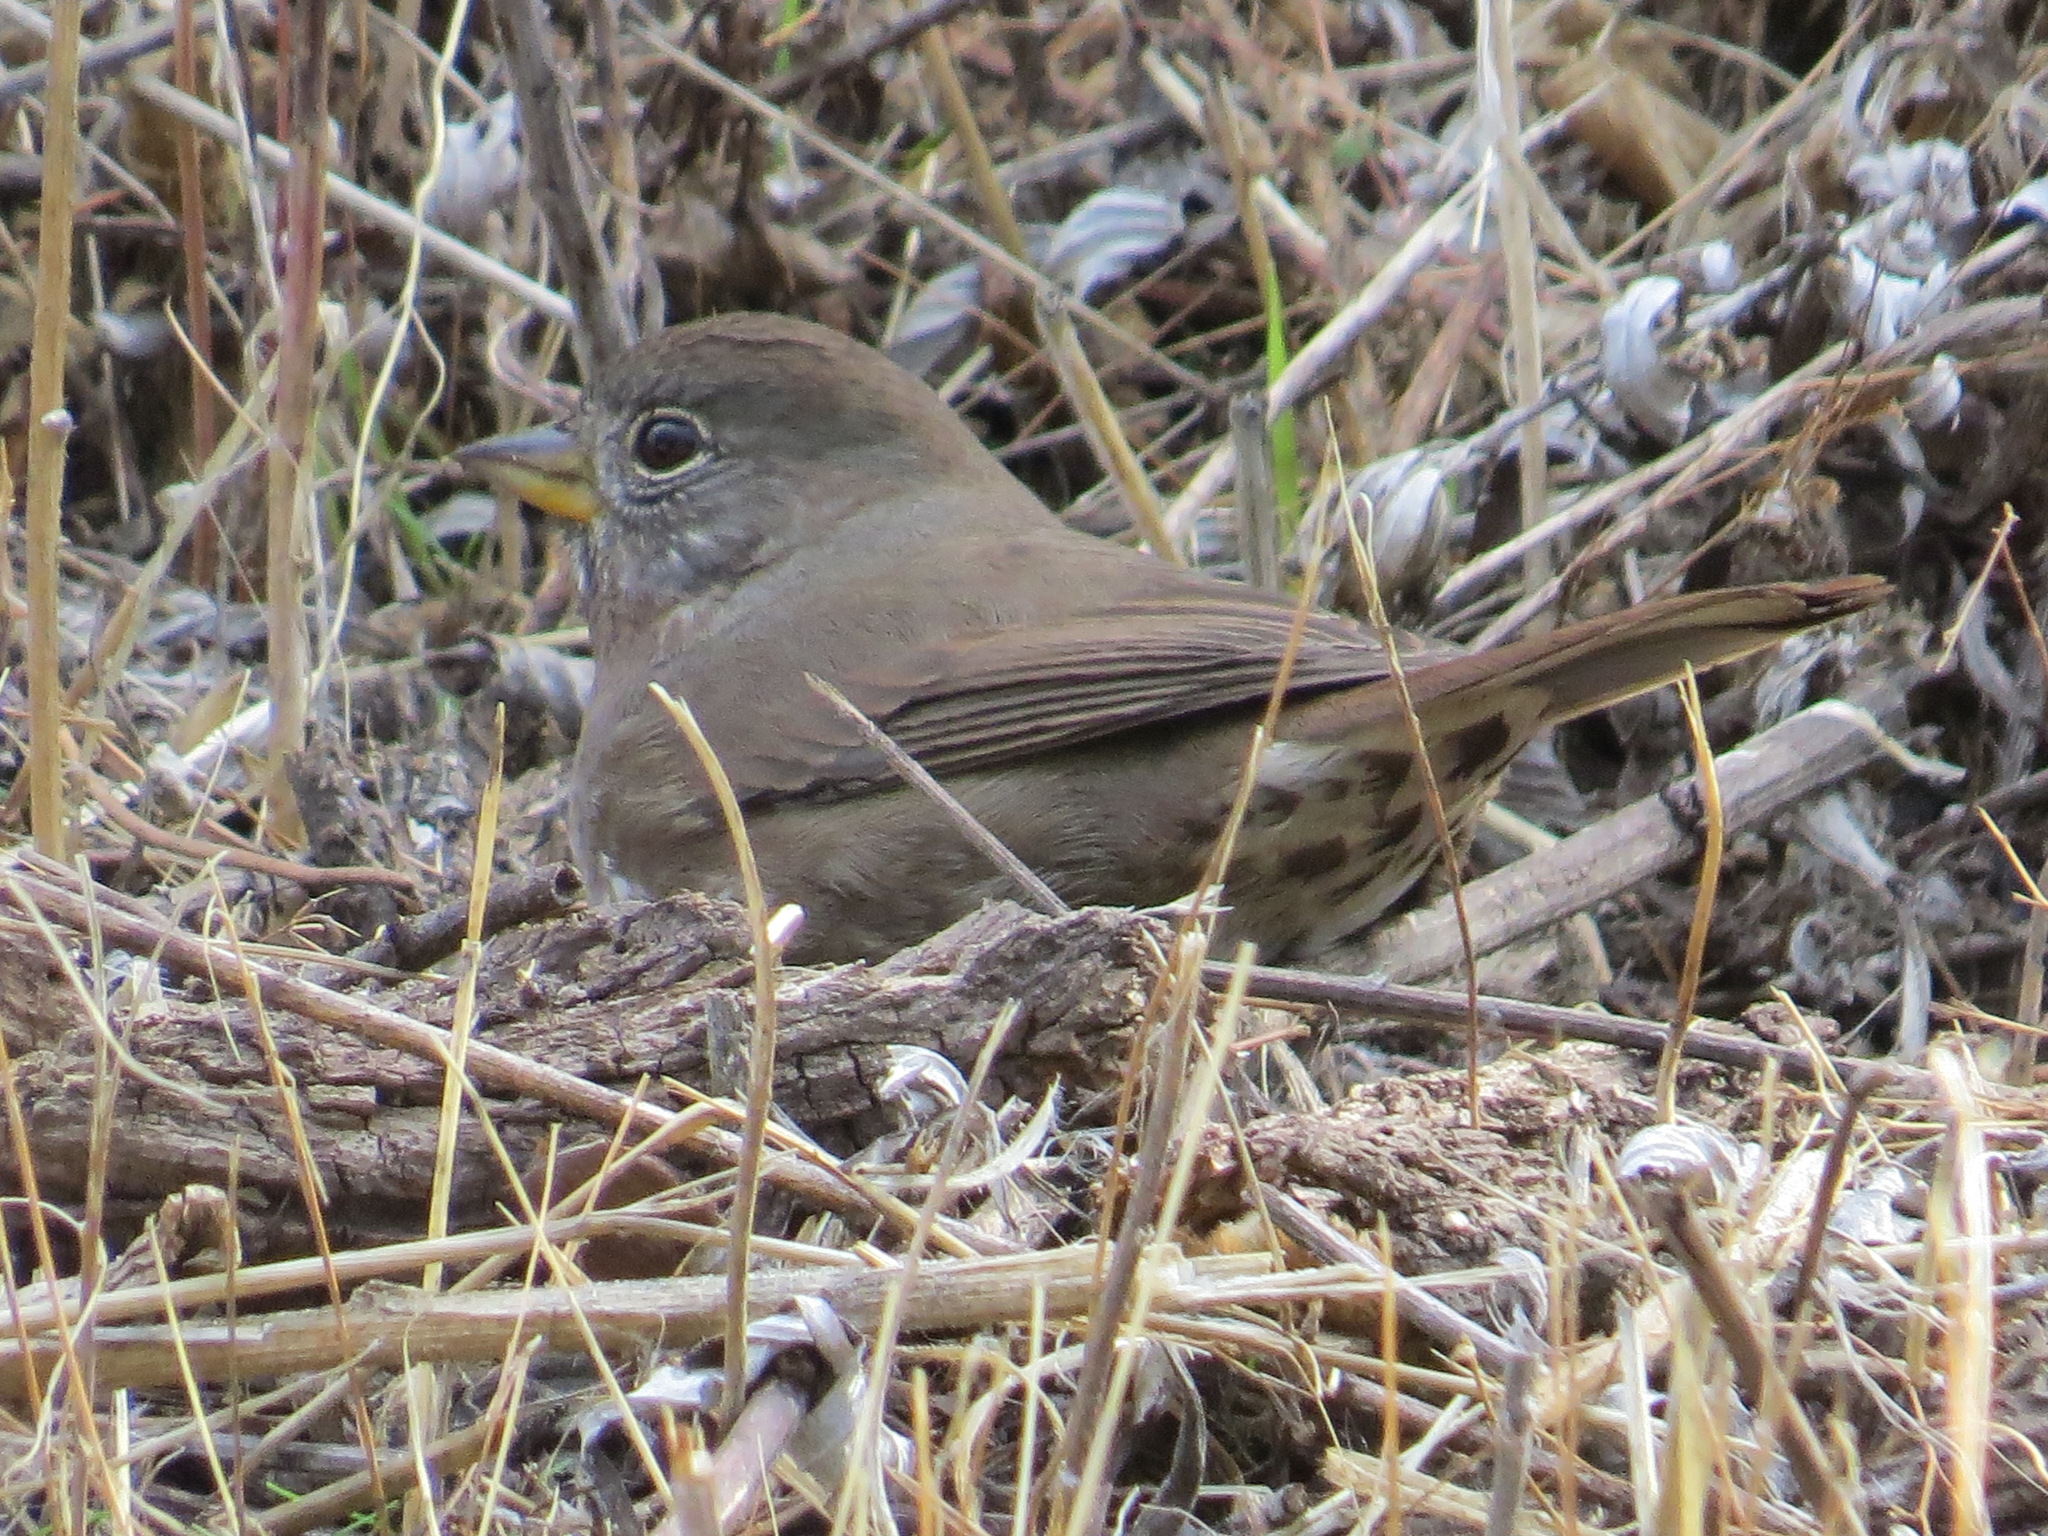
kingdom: Animalia
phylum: Chordata
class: Aves
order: Passeriformes
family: Passerellidae
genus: Passerella
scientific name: Passerella iliaca
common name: Fox sparrow
